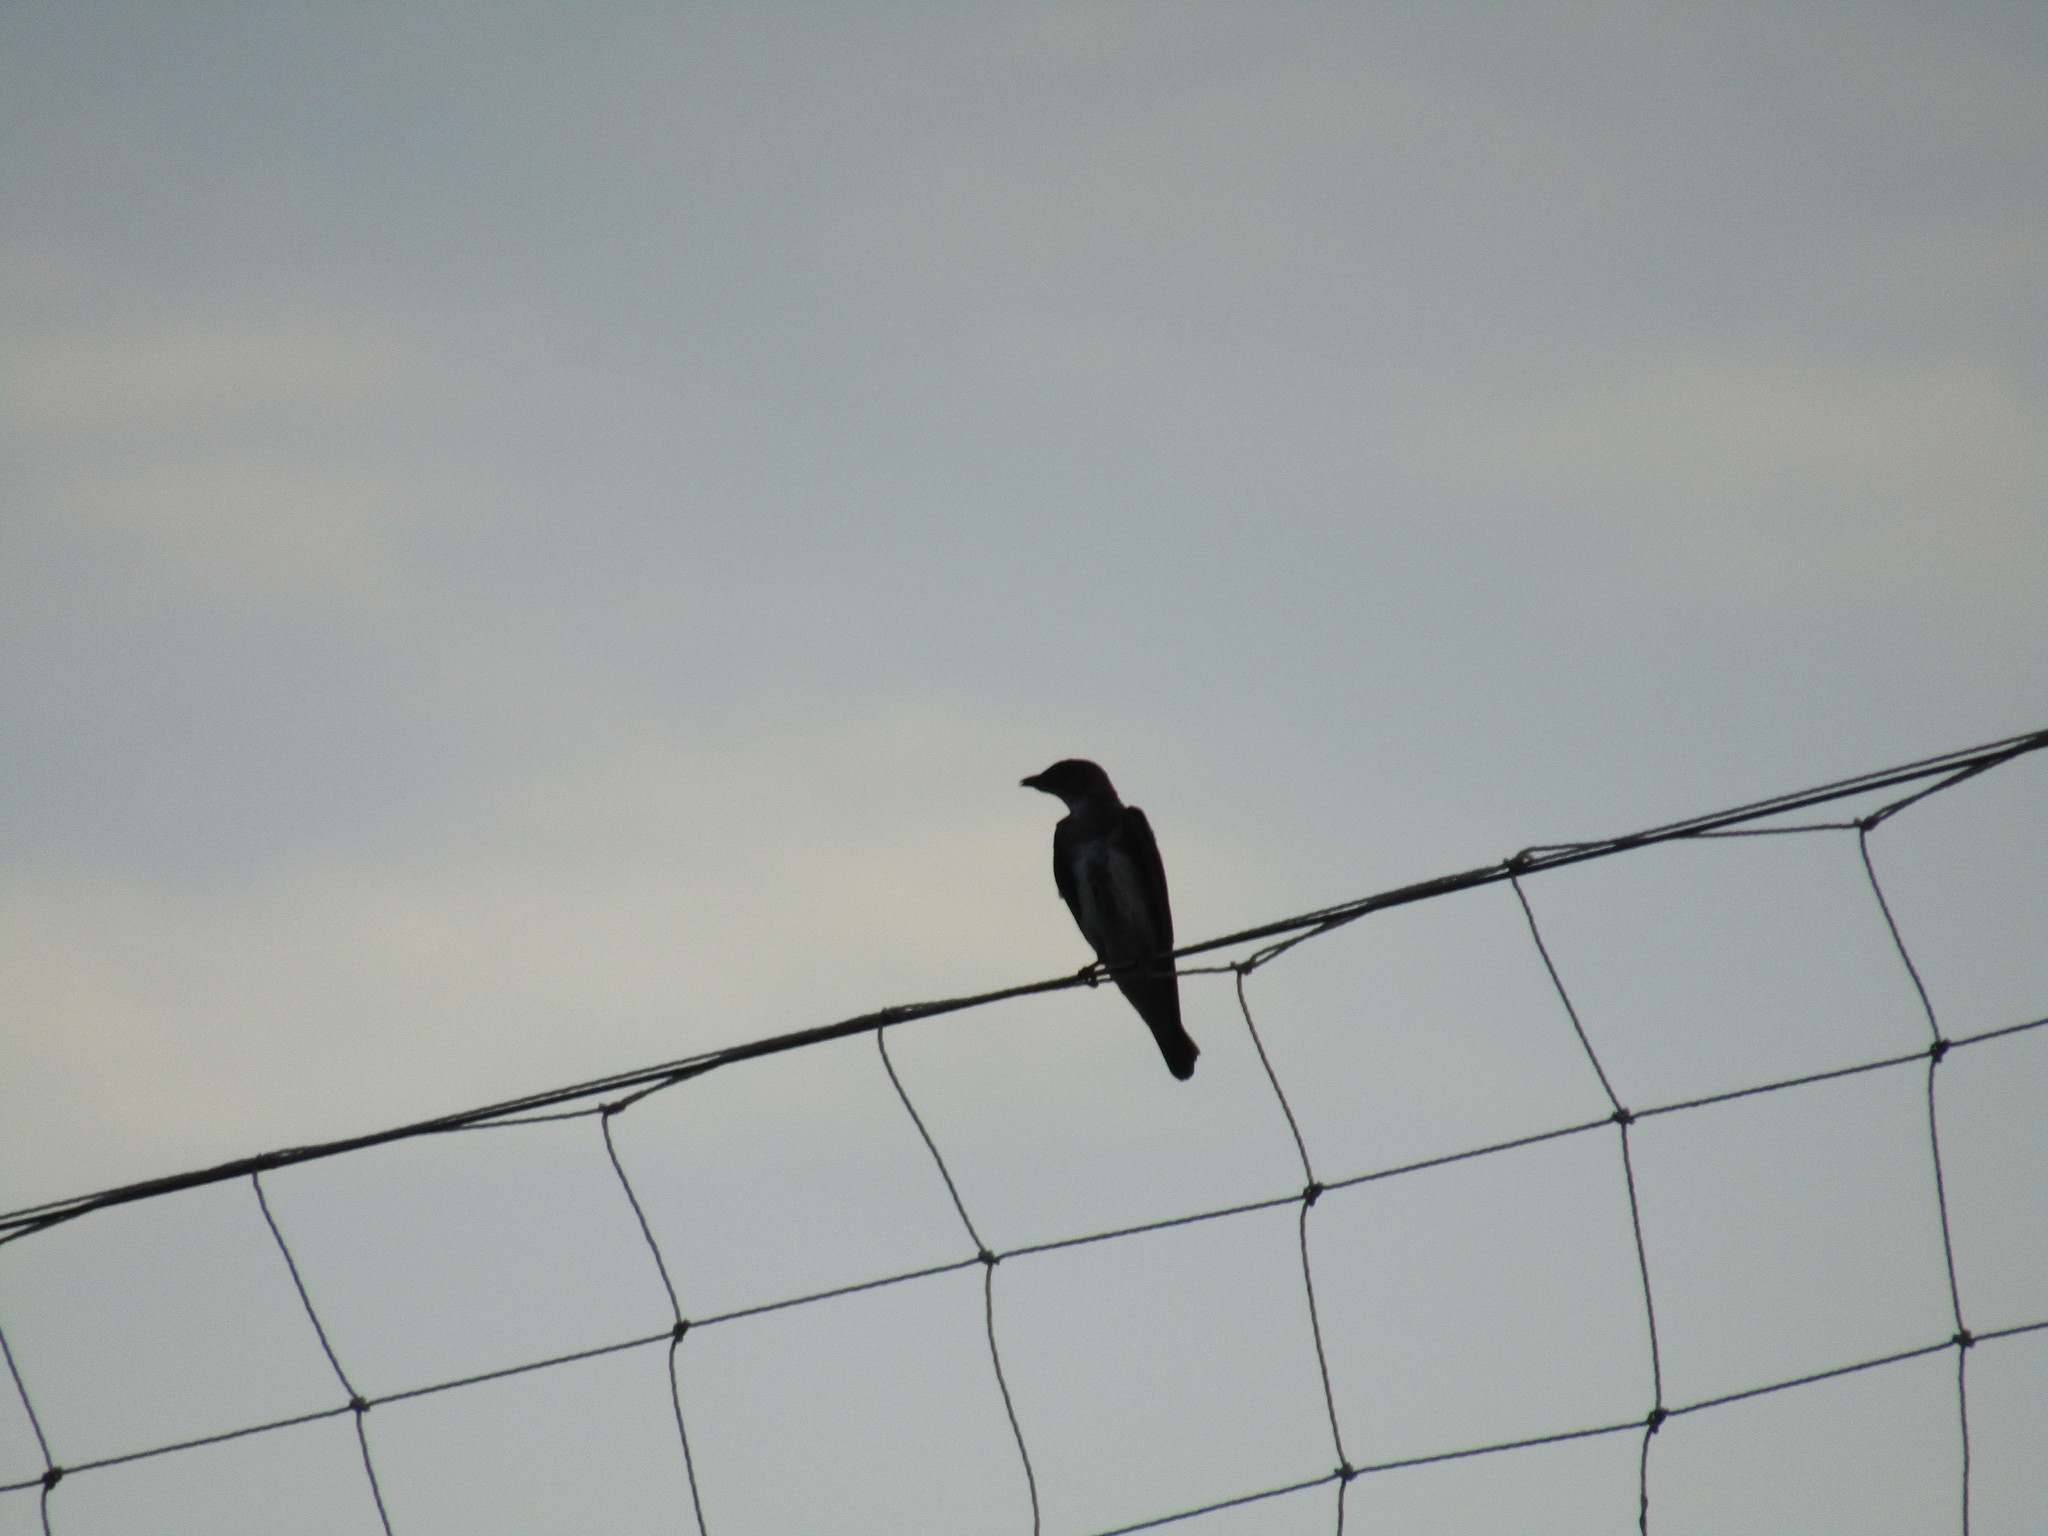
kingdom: Animalia
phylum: Chordata
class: Aves
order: Passeriformes
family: Hirundinidae
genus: Progne
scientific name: Progne tapera
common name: Brown-chested martin
